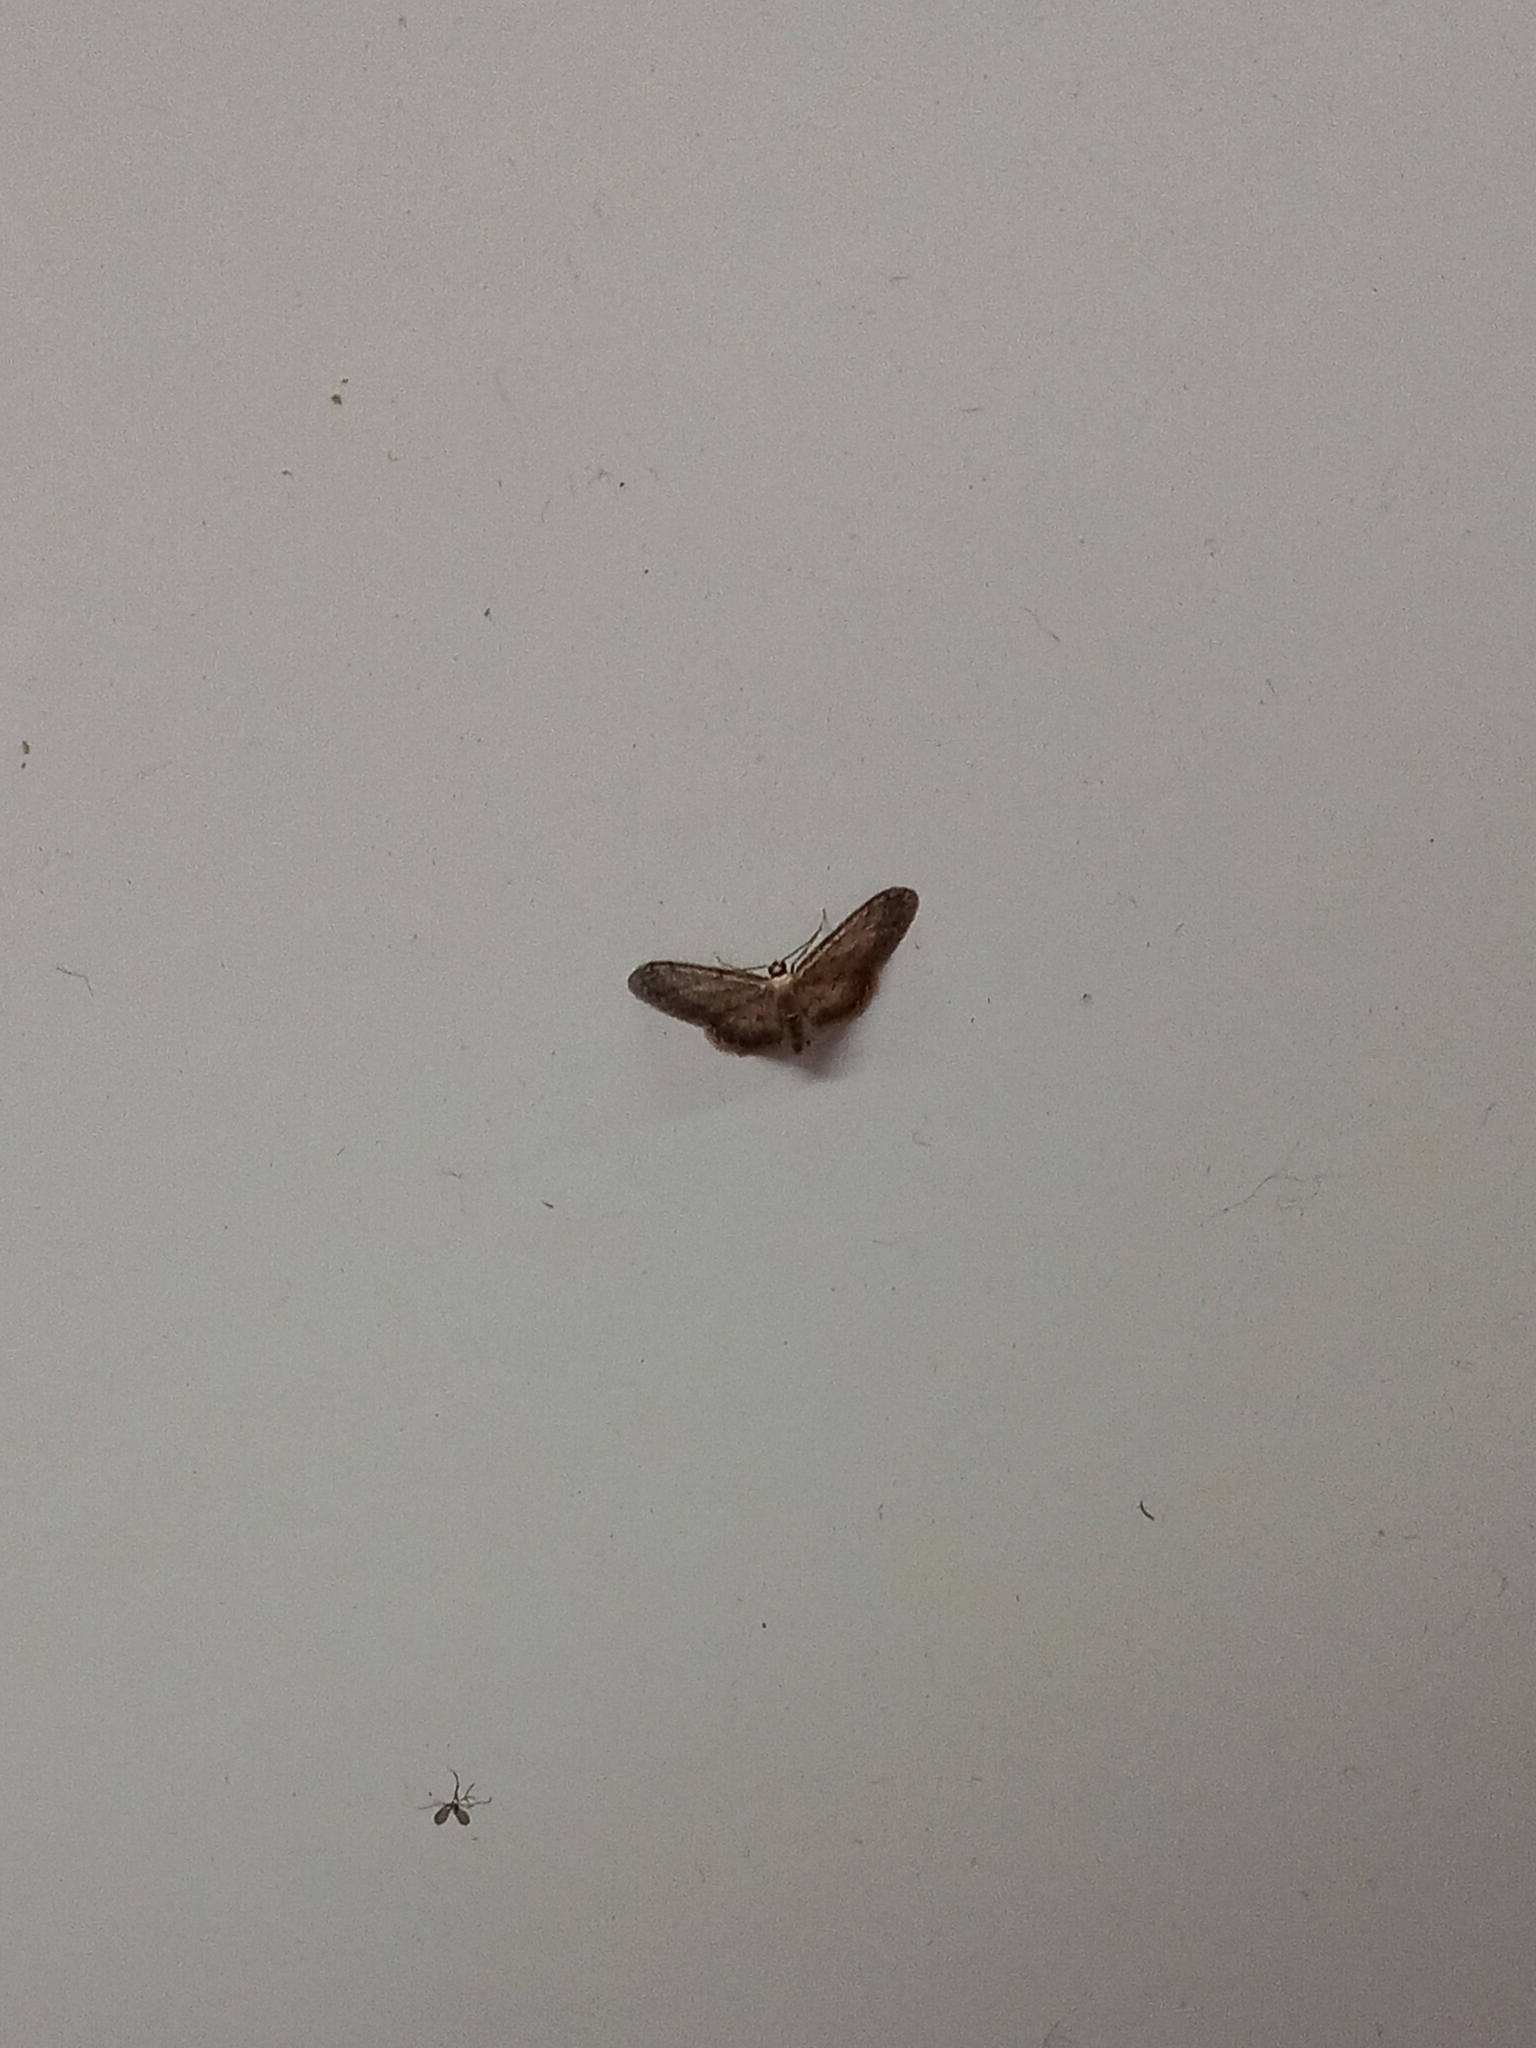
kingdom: Animalia
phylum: Arthropoda
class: Insecta
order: Lepidoptera
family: Geometridae
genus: Idaea
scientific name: Idaea seriata
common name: Small dusty wave
